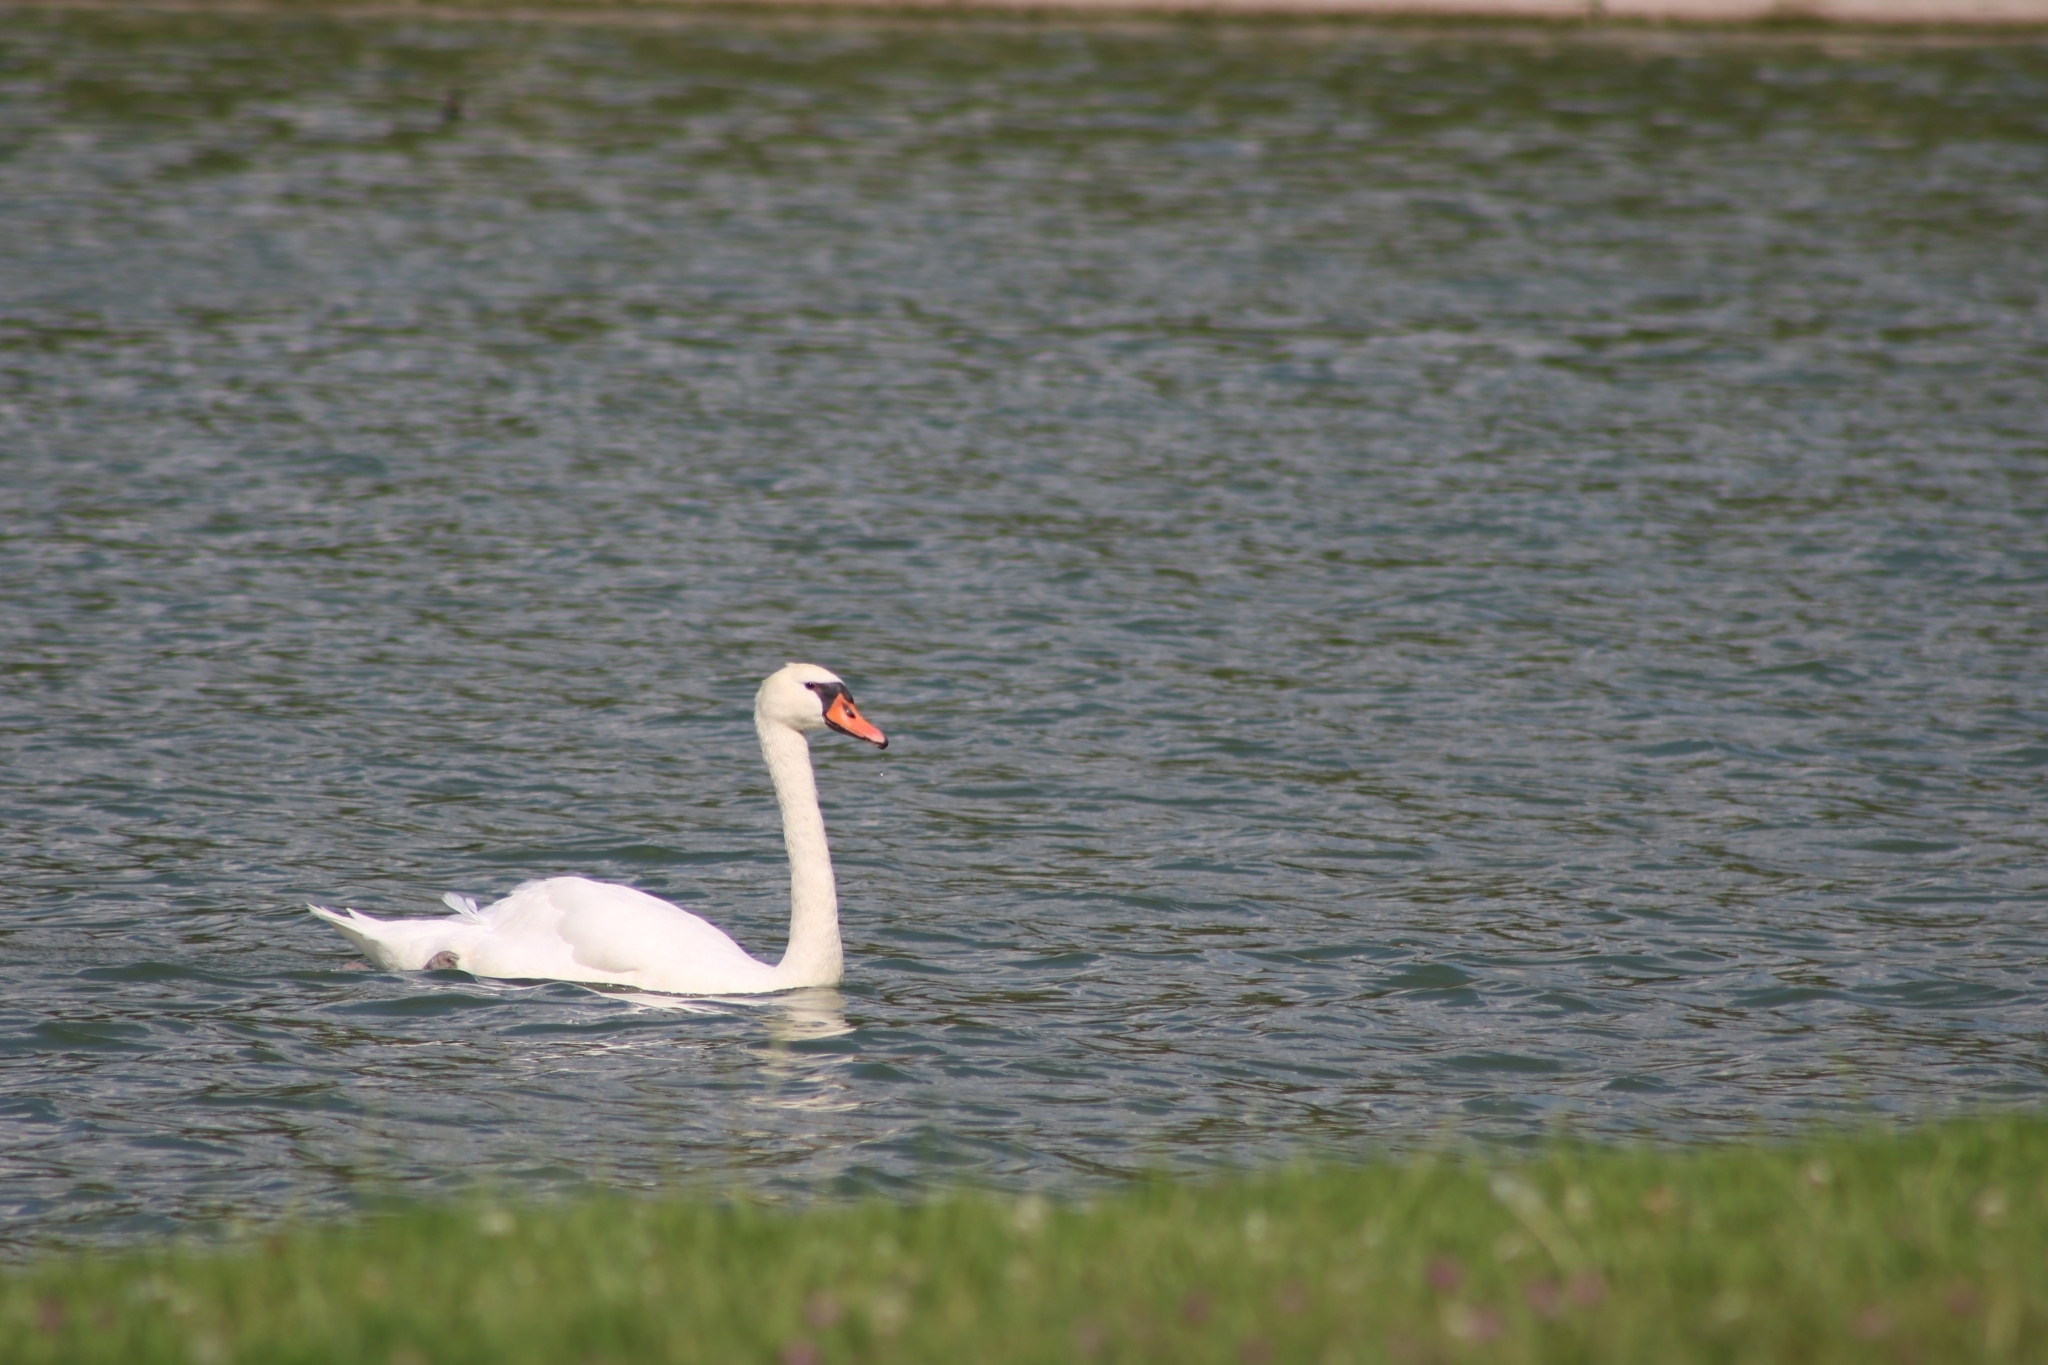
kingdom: Animalia
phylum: Chordata
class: Aves
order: Anseriformes
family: Anatidae
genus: Cygnus
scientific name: Cygnus olor
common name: Mute swan
